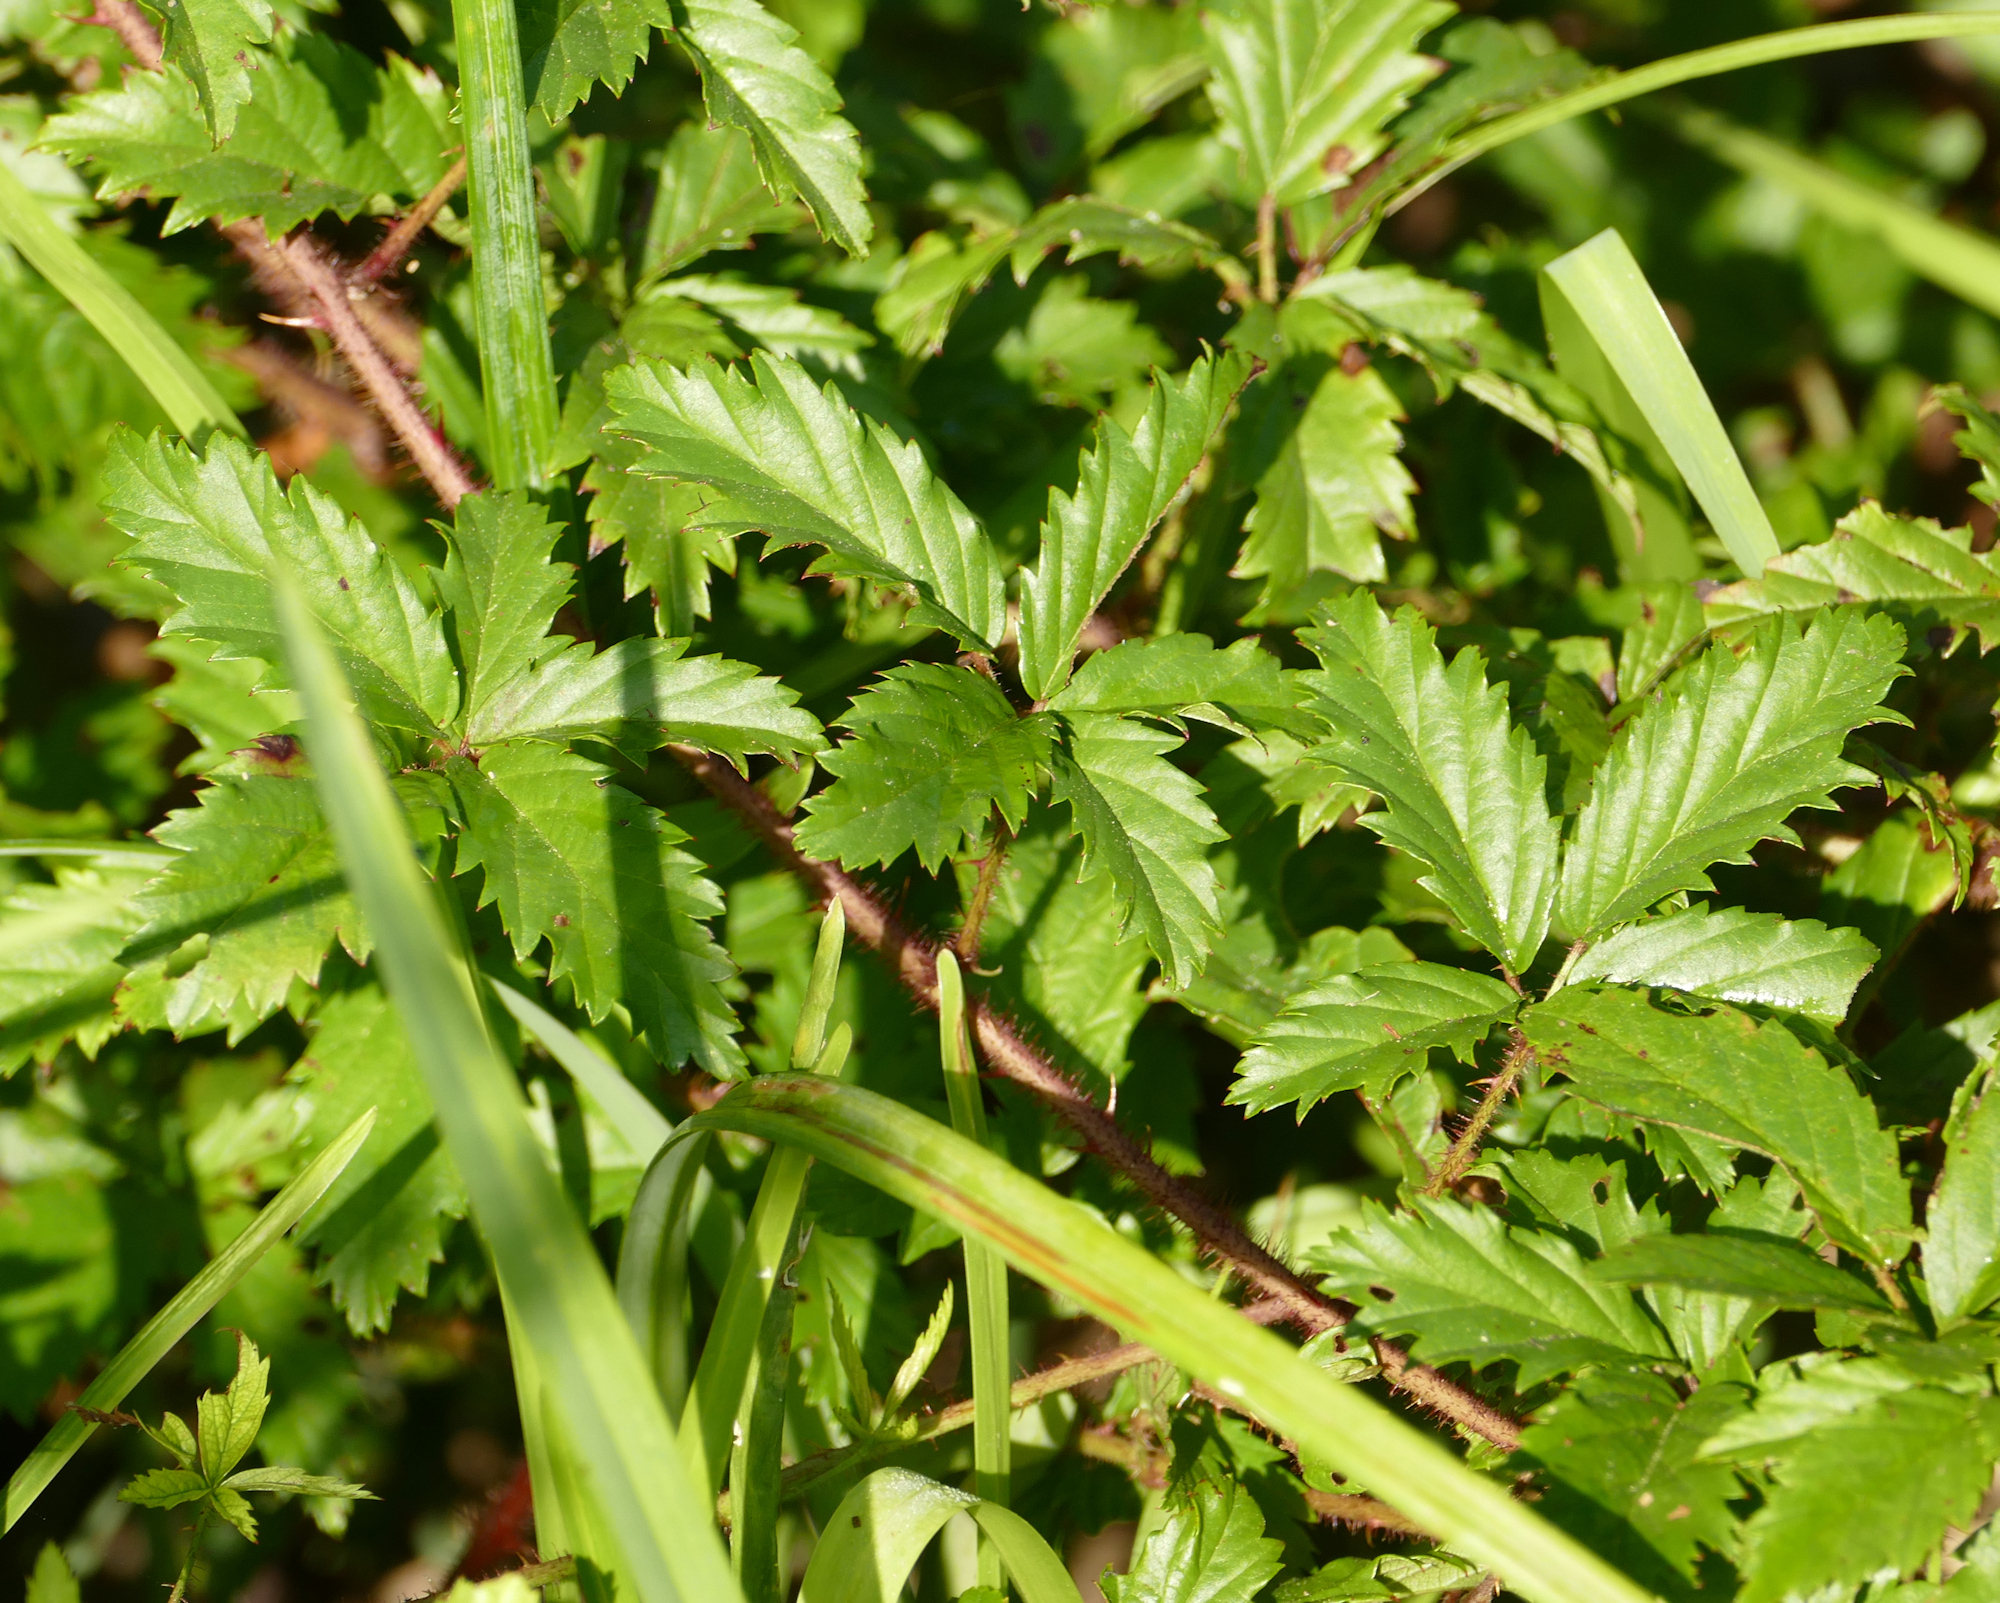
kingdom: Plantae
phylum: Tracheophyta
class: Magnoliopsida
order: Rosales
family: Rosaceae
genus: Rubus
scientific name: Rubus trivialis
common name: Southern dewberry
